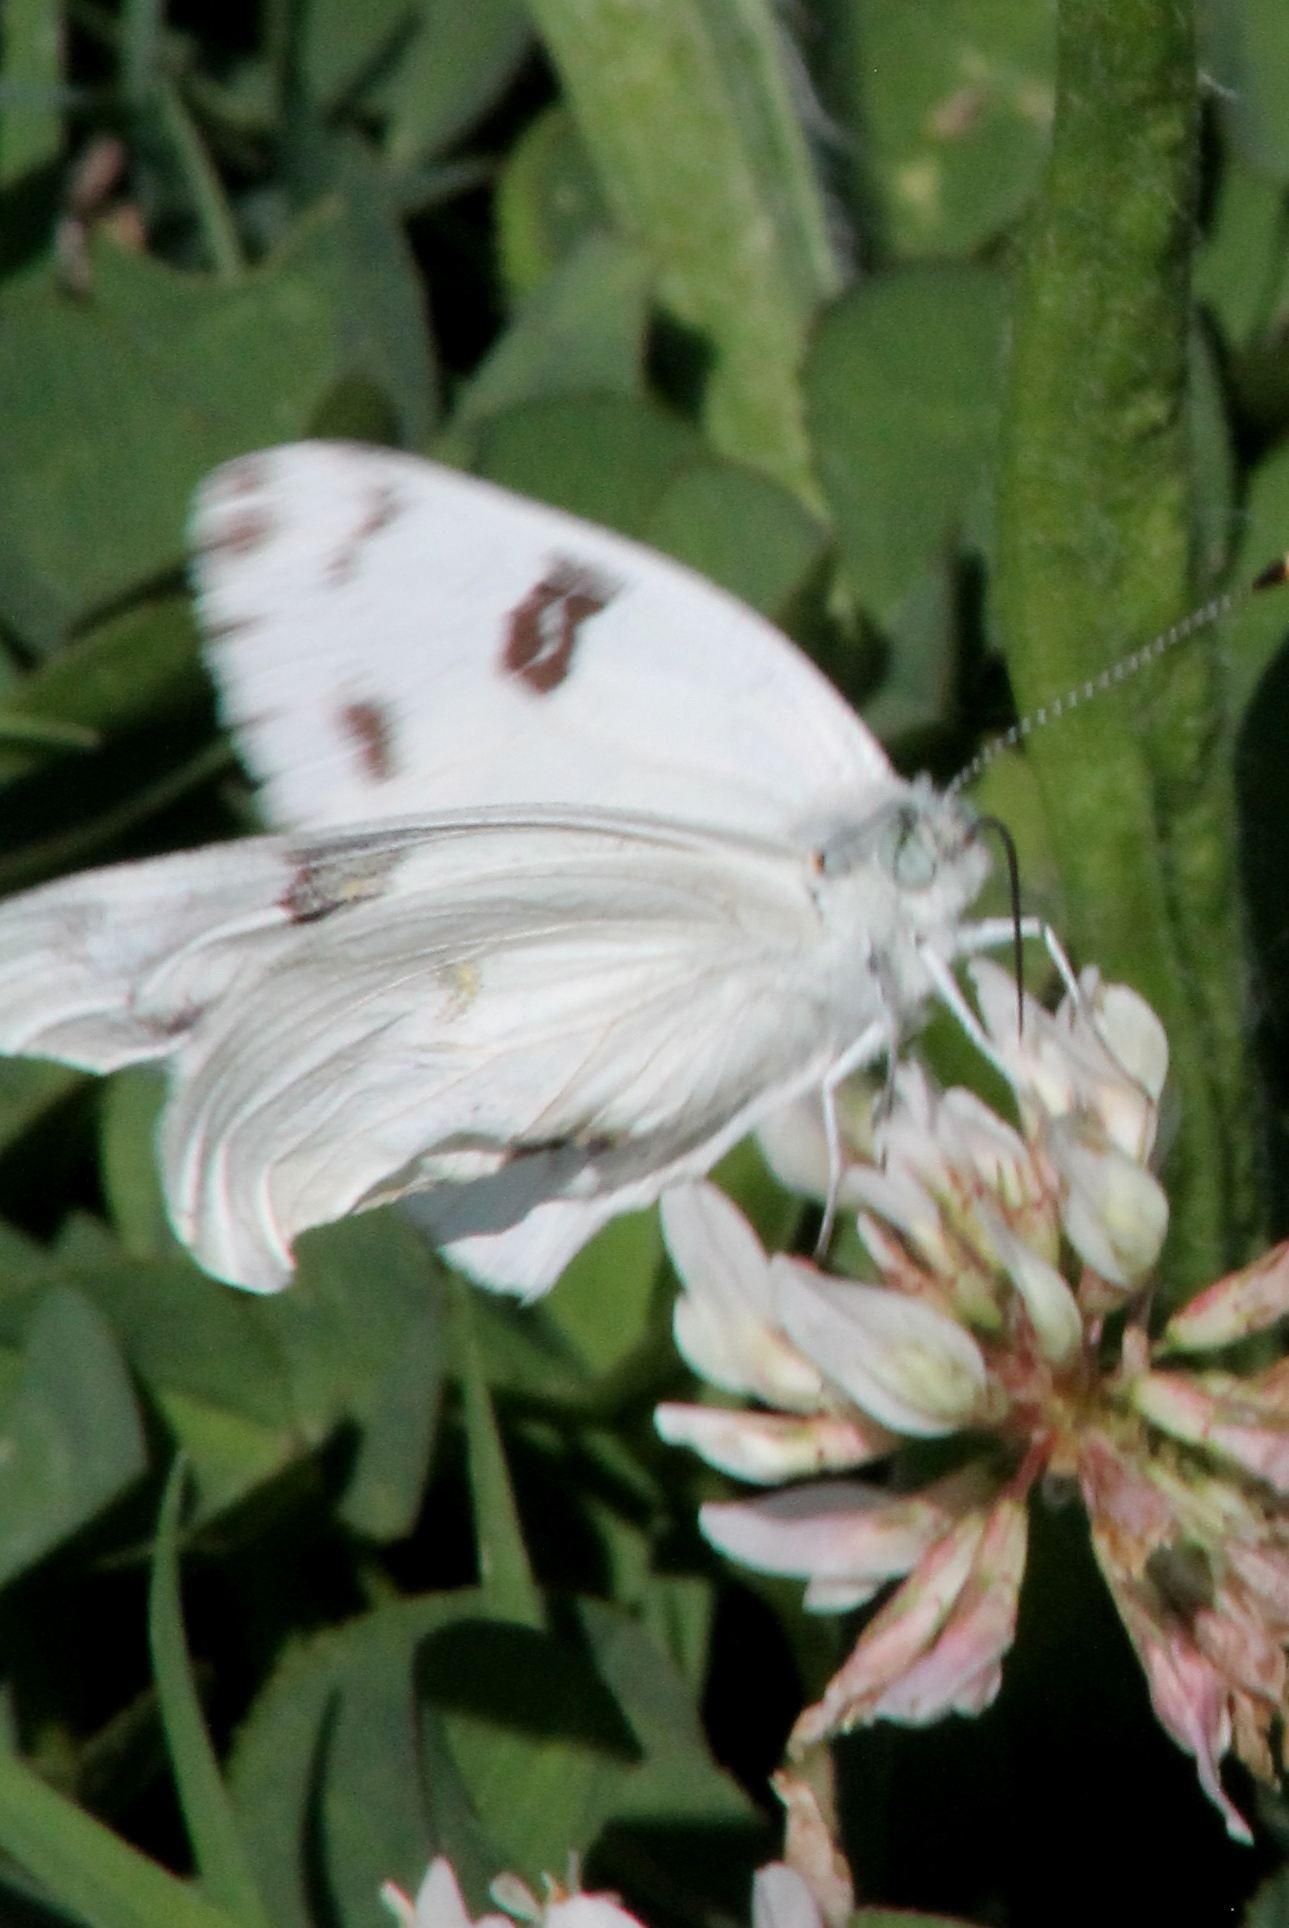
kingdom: Animalia
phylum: Arthropoda
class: Insecta
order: Lepidoptera
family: Pieridae
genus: Pontia
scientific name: Pontia protodice
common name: Checkered white
